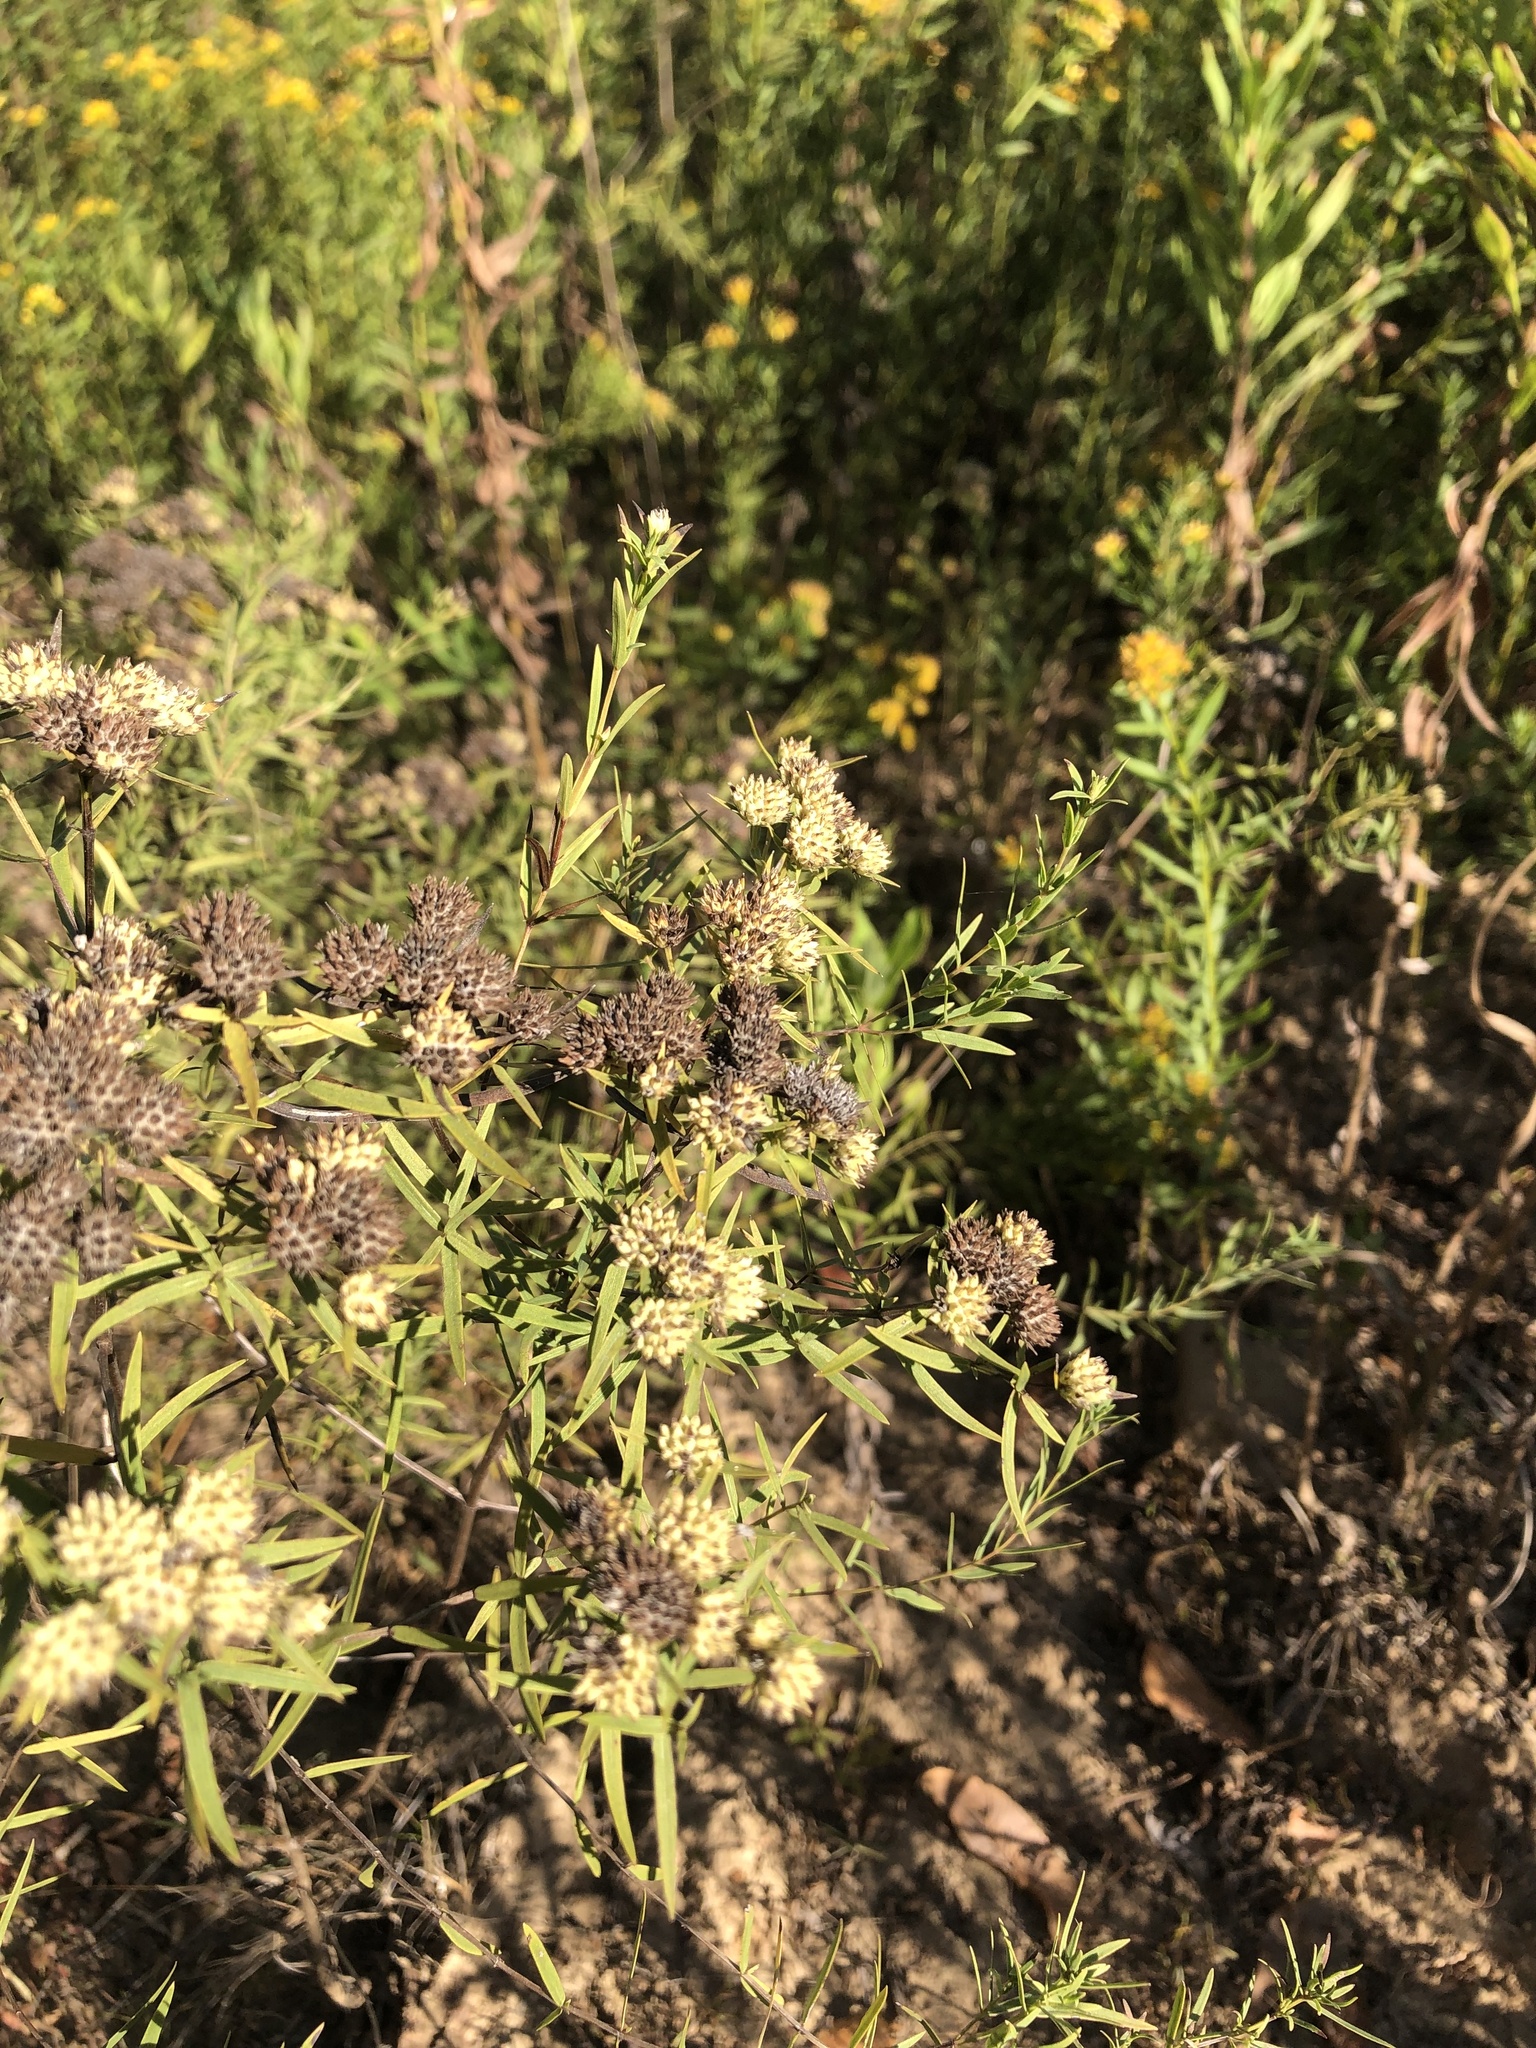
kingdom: Plantae
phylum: Tracheophyta
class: Magnoliopsida
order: Lamiales
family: Lamiaceae
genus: Pycnanthemum
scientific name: Pycnanthemum tenuifolium
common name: Narrow-leaf mountain-mint
